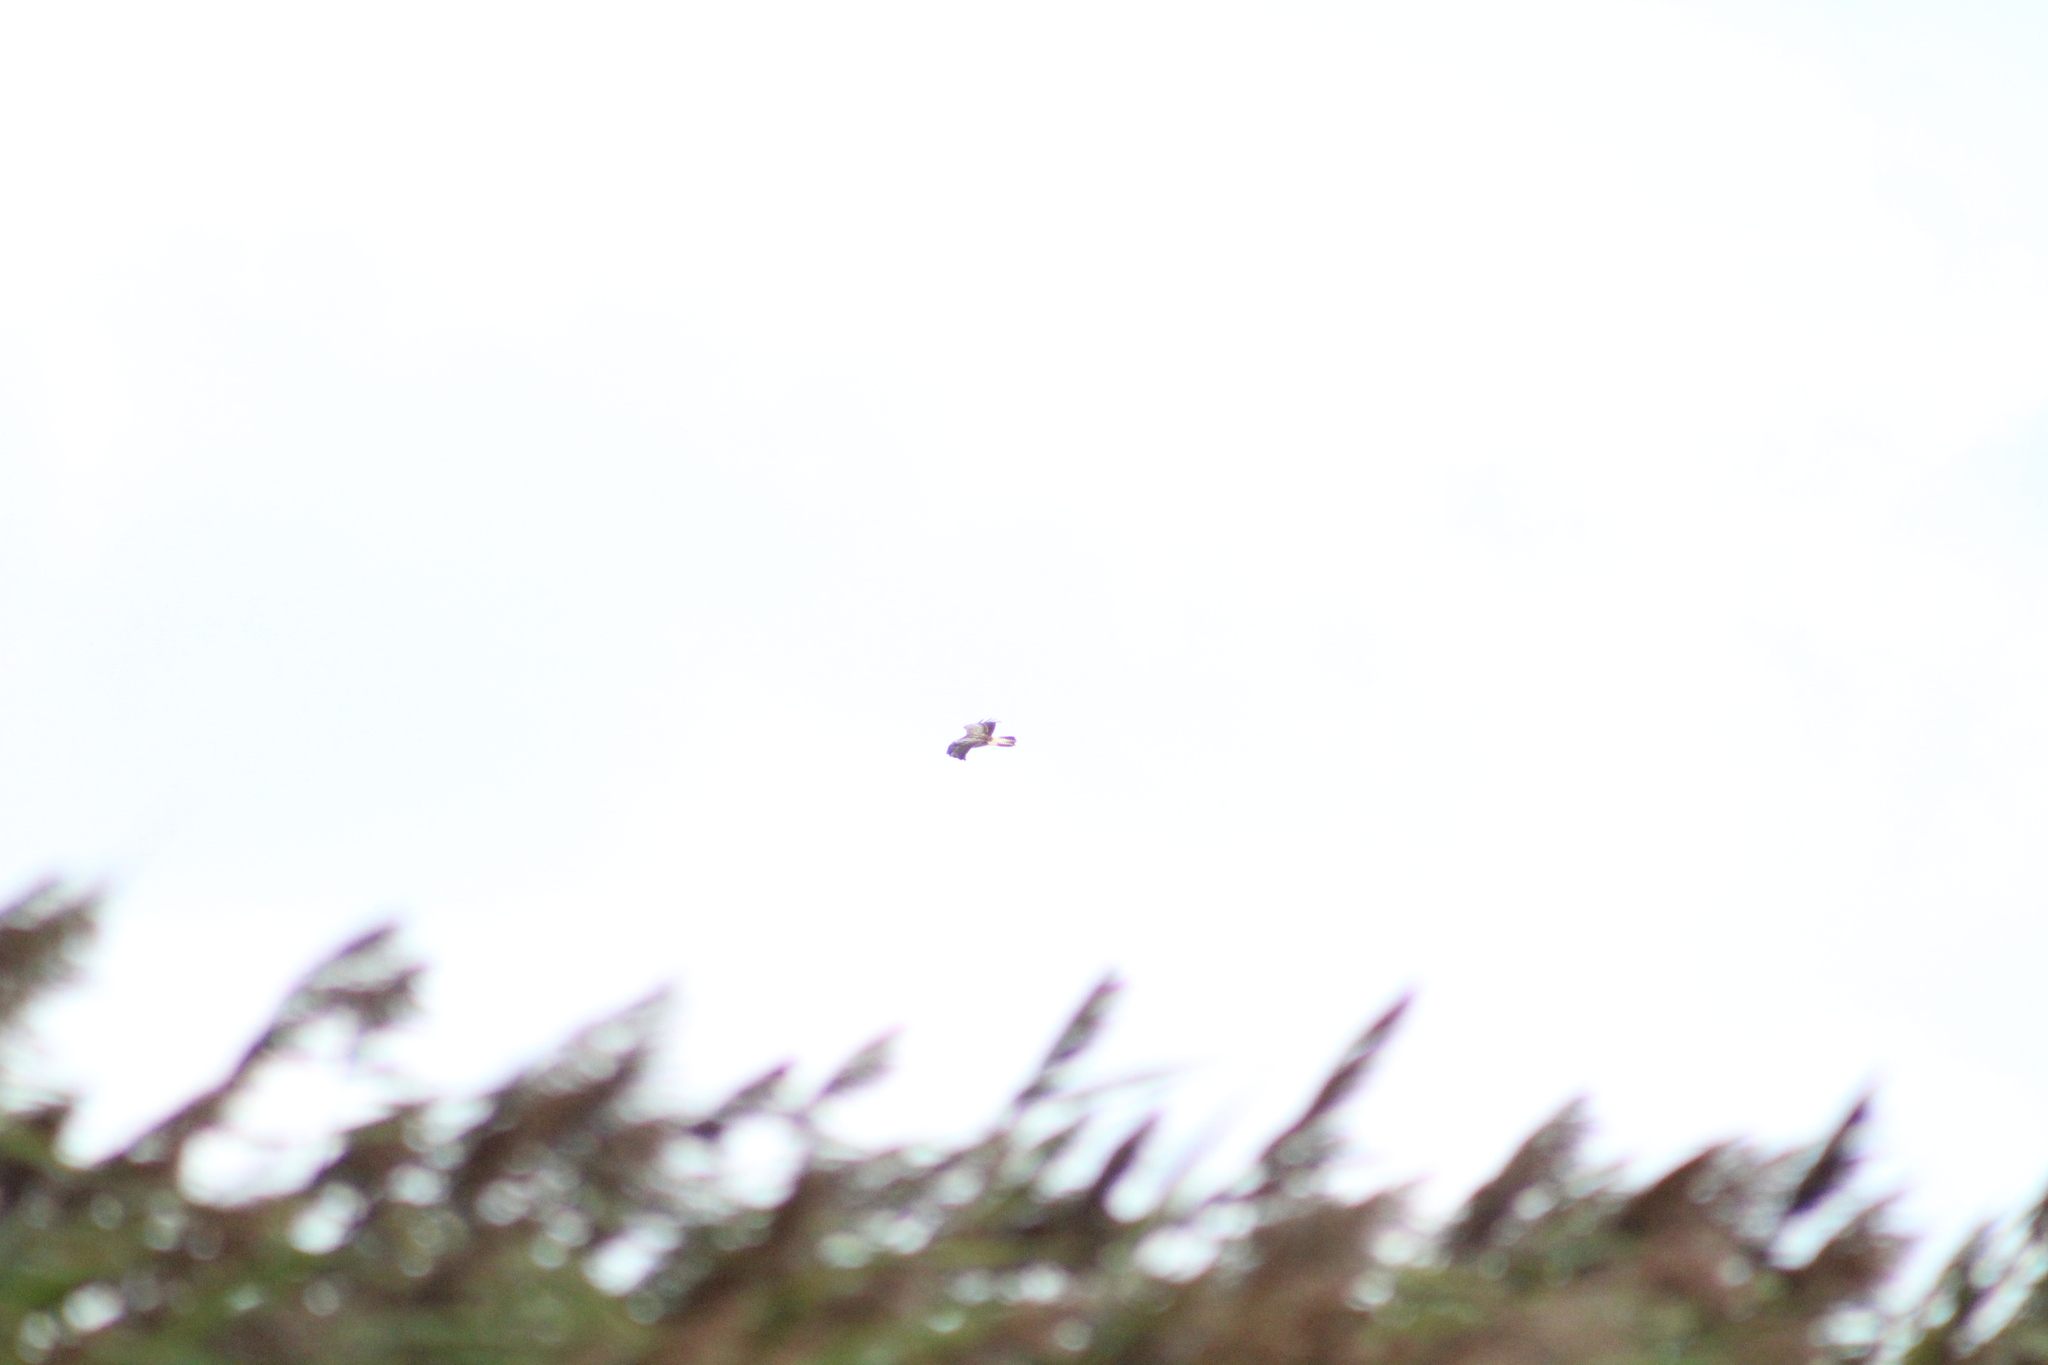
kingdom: Animalia
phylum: Chordata
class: Aves
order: Accipitriformes
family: Accipitridae
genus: Buteo
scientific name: Buteo buteo
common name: Common buzzard
